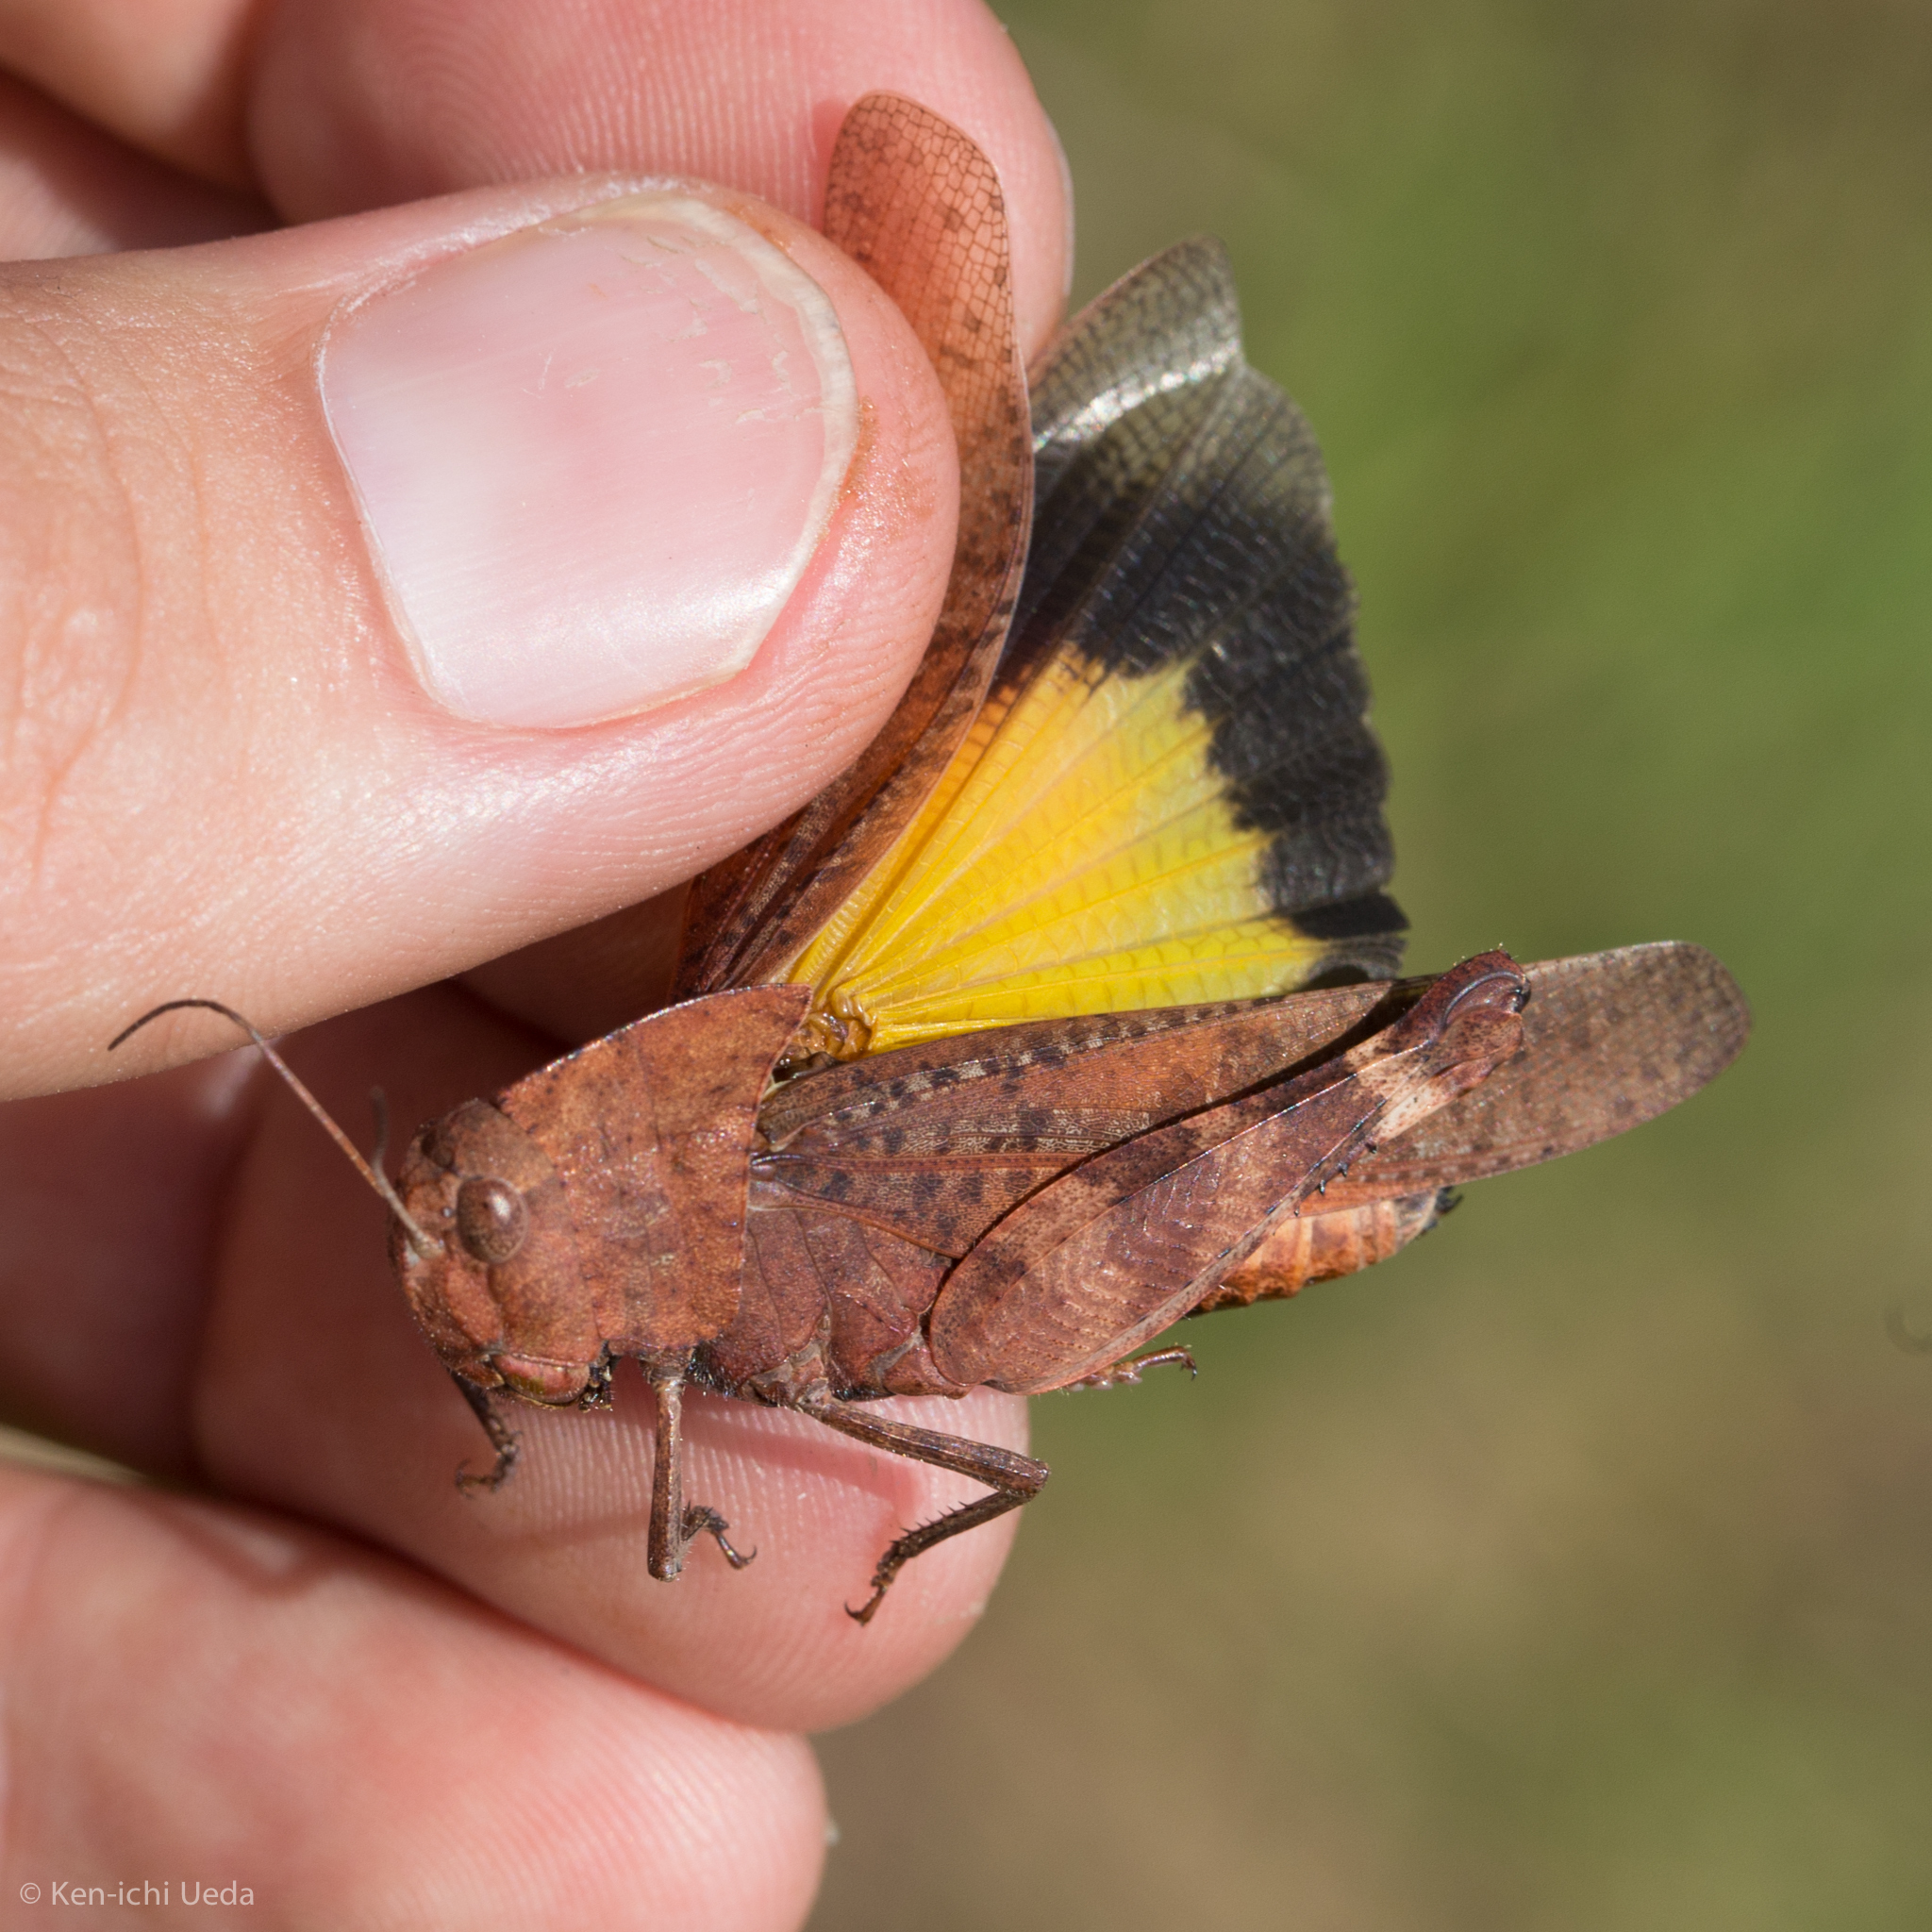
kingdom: Animalia
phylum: Arthropoda
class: Insecta
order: Orthoptera
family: Acrididae
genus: Arphia
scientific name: Arphia xanthoptera
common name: Autumn yellow-winged grasshopper
